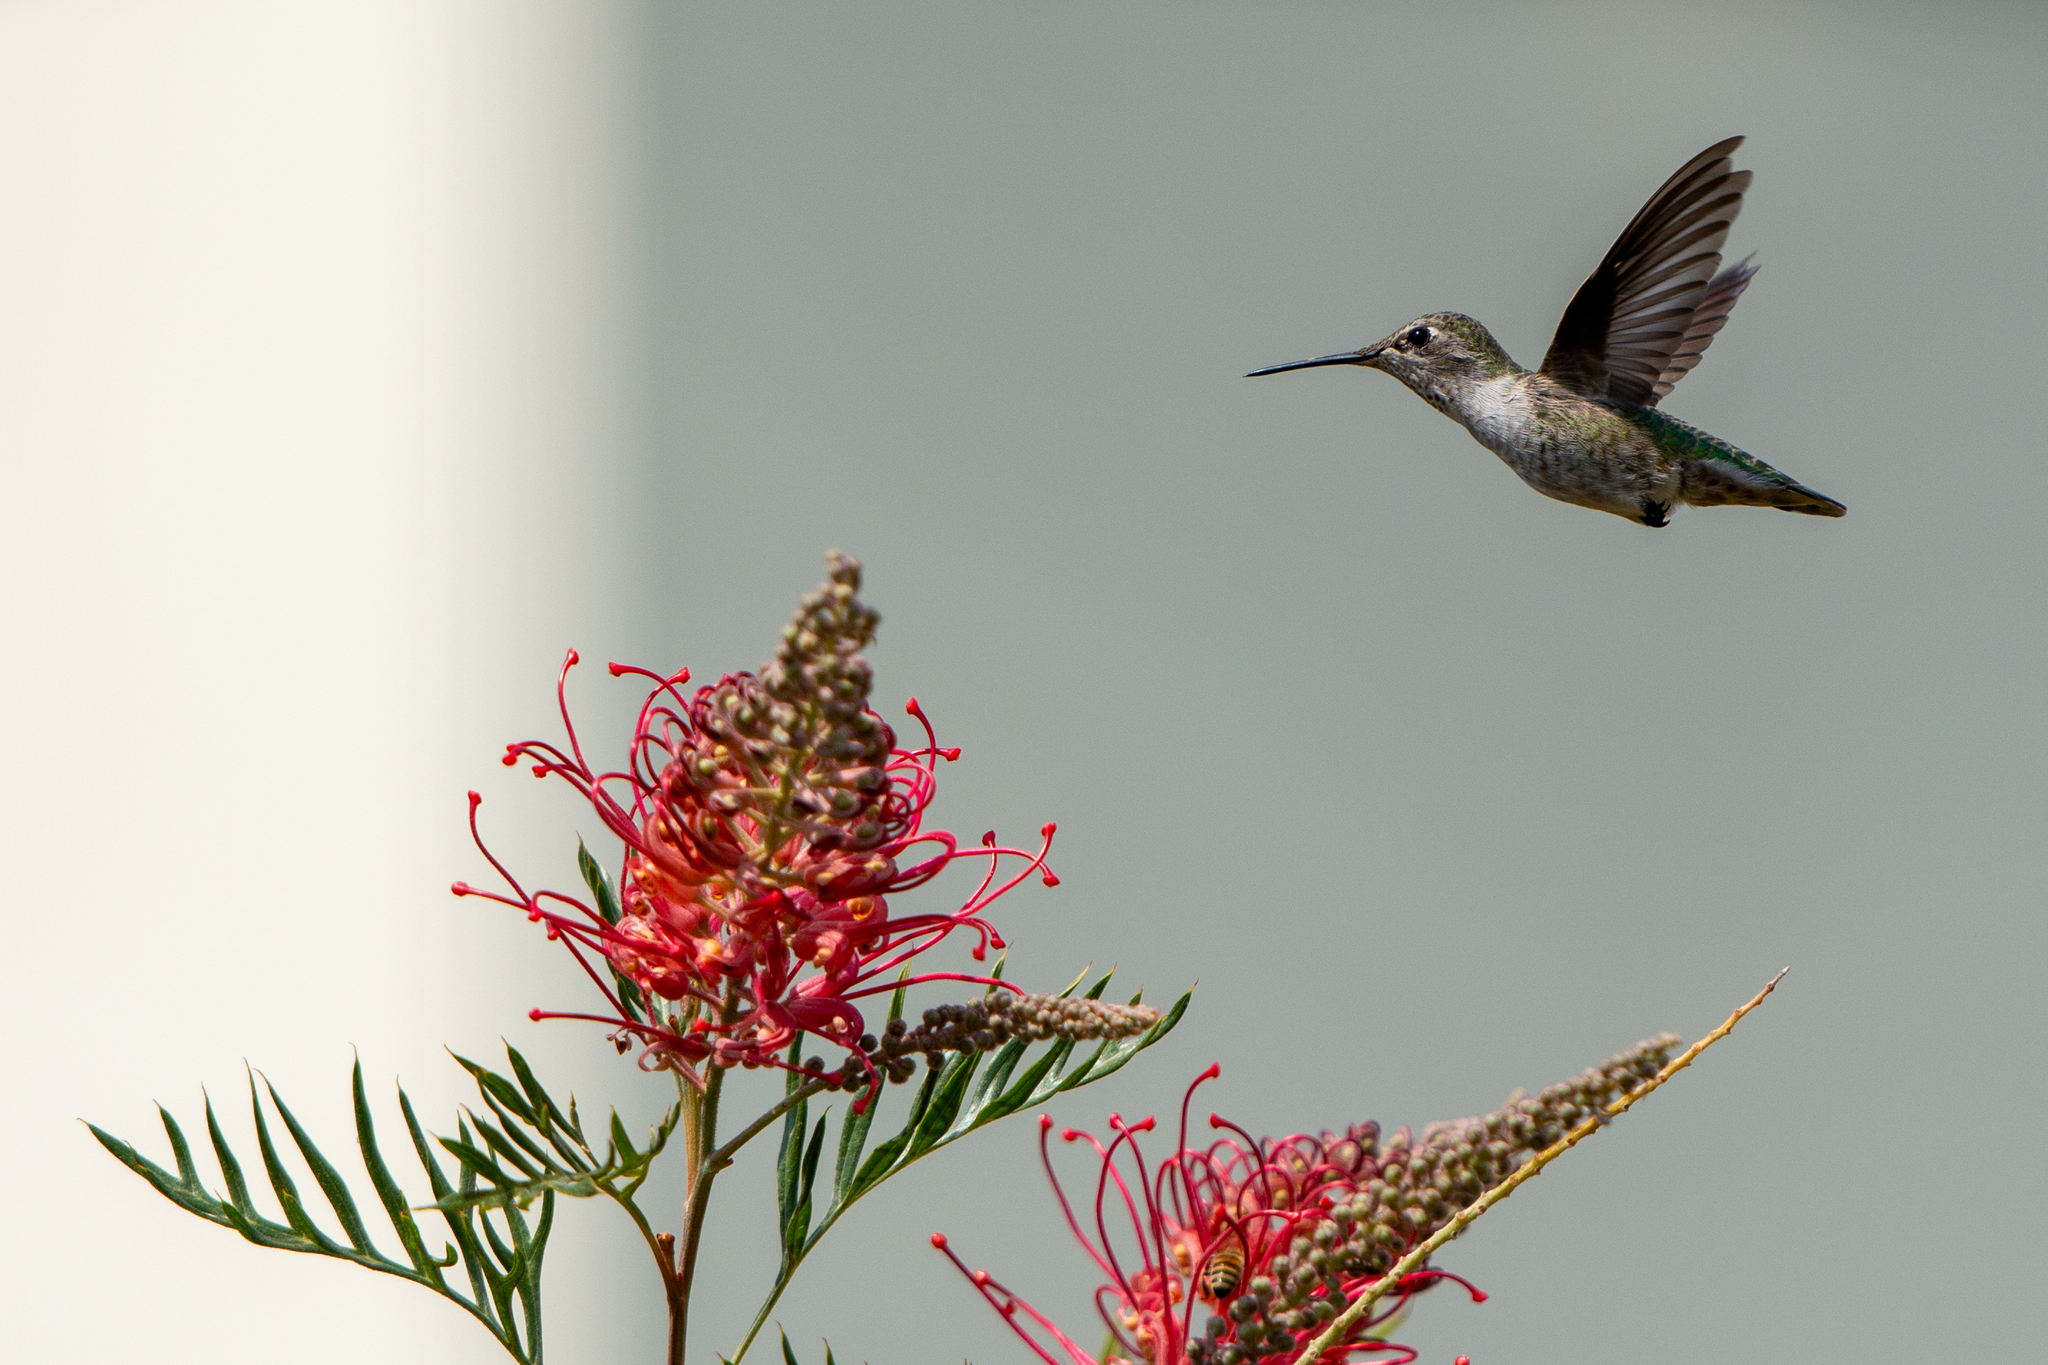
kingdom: Animalia
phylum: Chordata
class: Aves
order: Apodiformes
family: Trochilidae
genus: Calypte
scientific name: Calypte anna
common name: Anna's hummingbird
